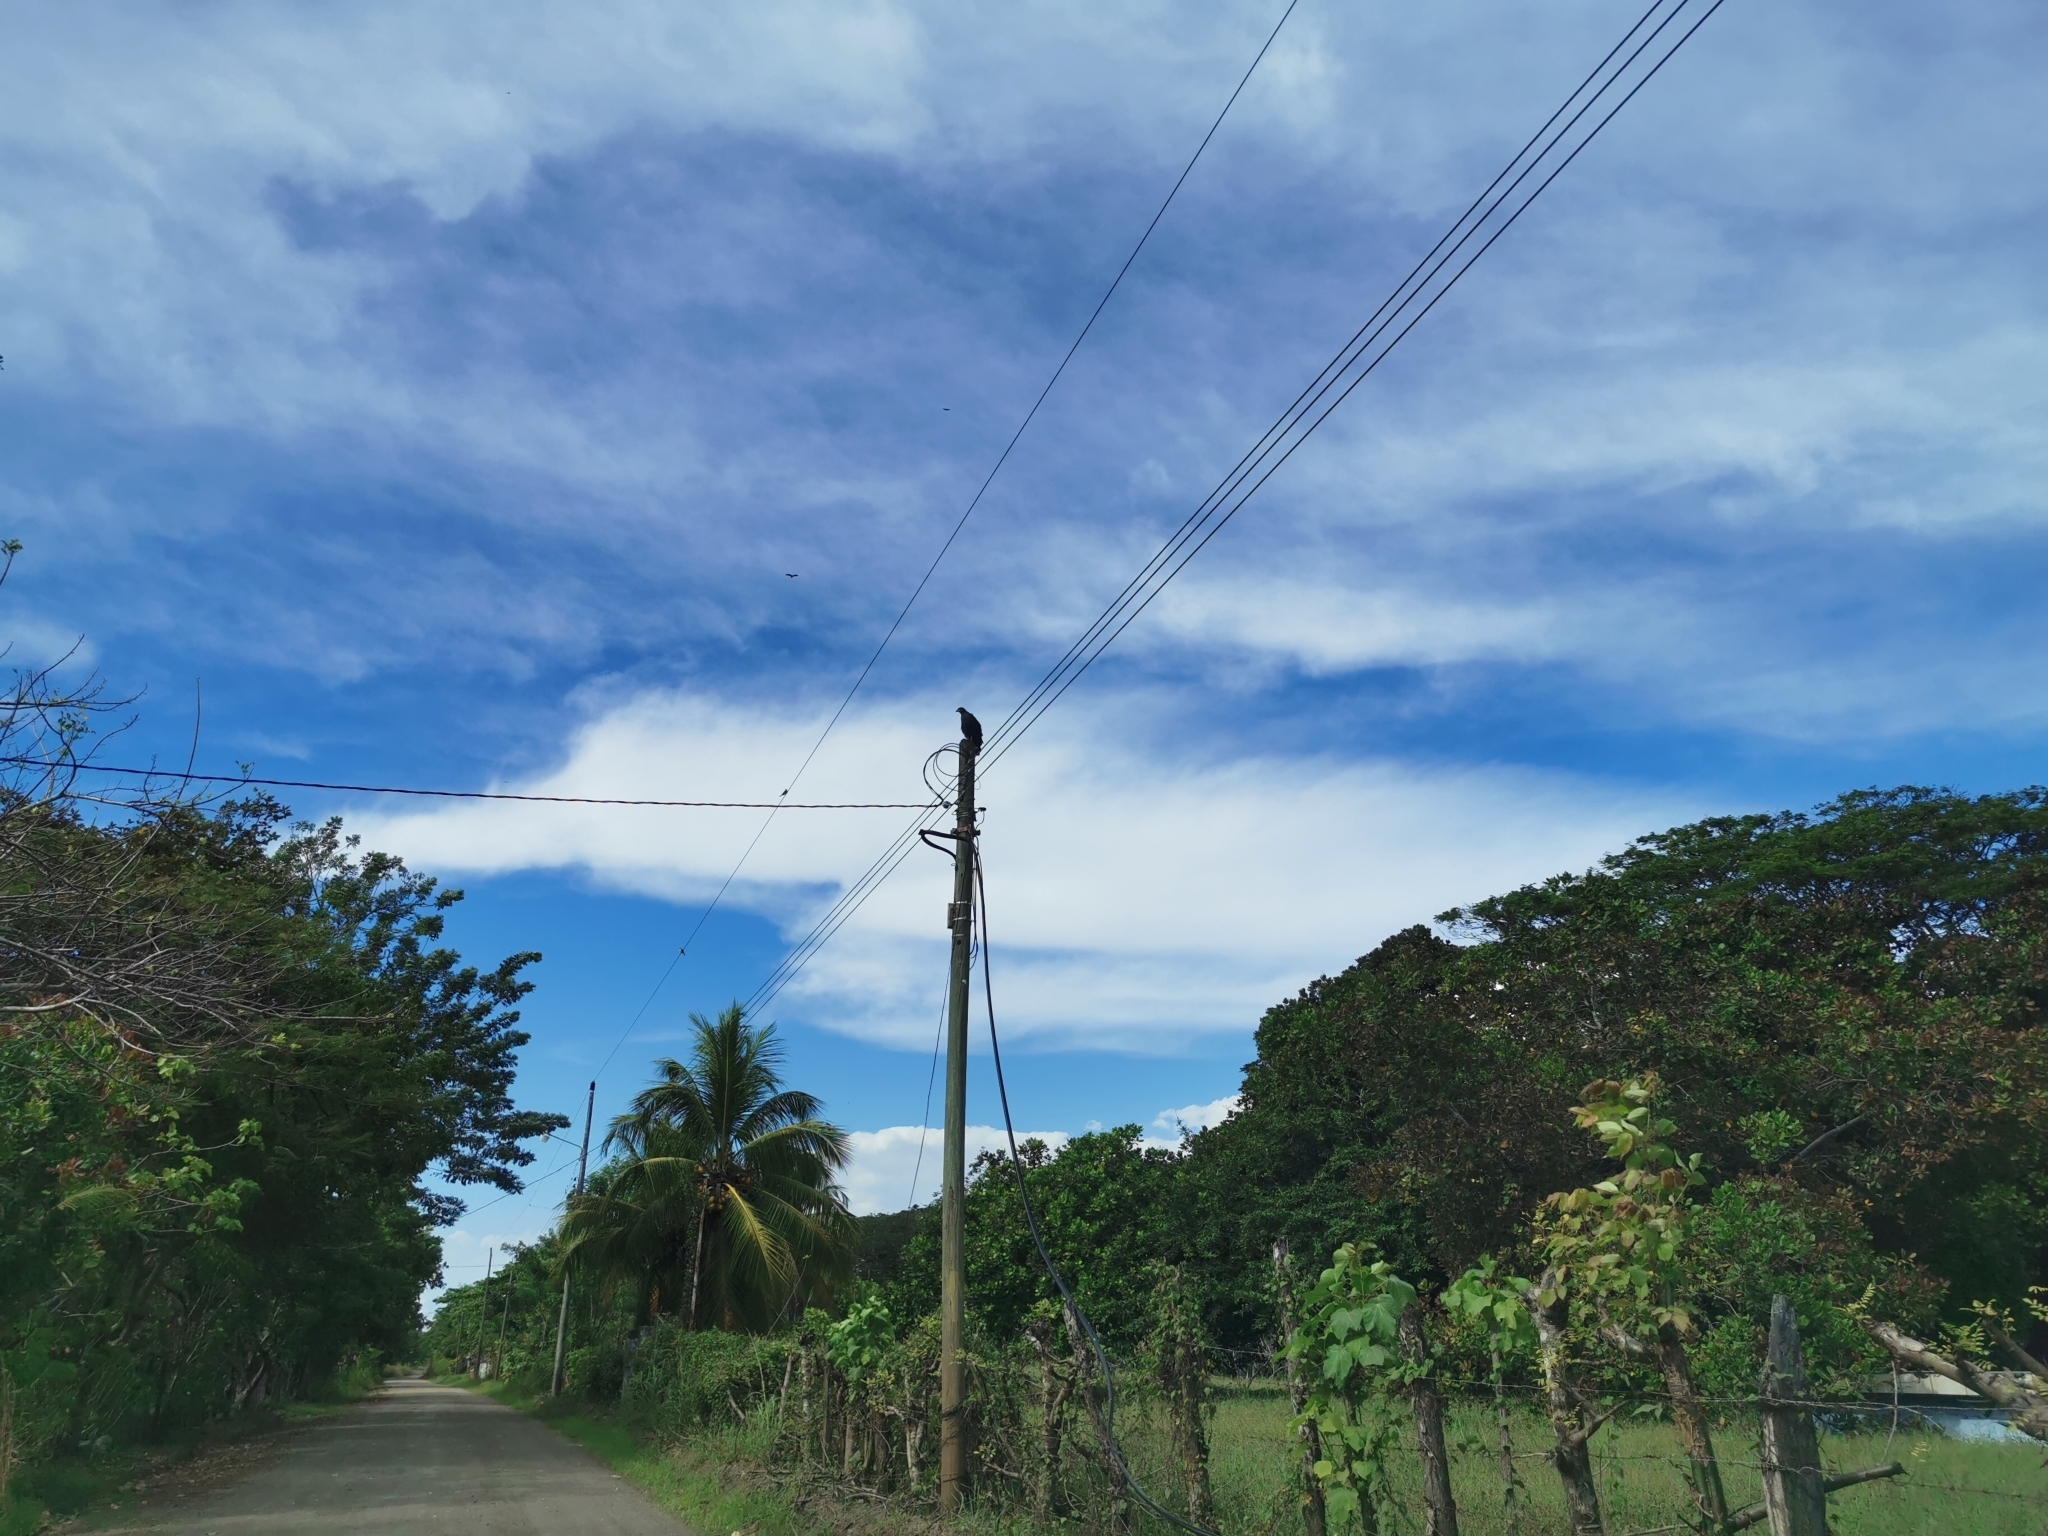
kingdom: Animalia
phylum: Chordata
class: Aves
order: Accipitriformes
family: Accipitridae
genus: Buteogallus
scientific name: Buteogallus anthracinus
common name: Common black hawk
